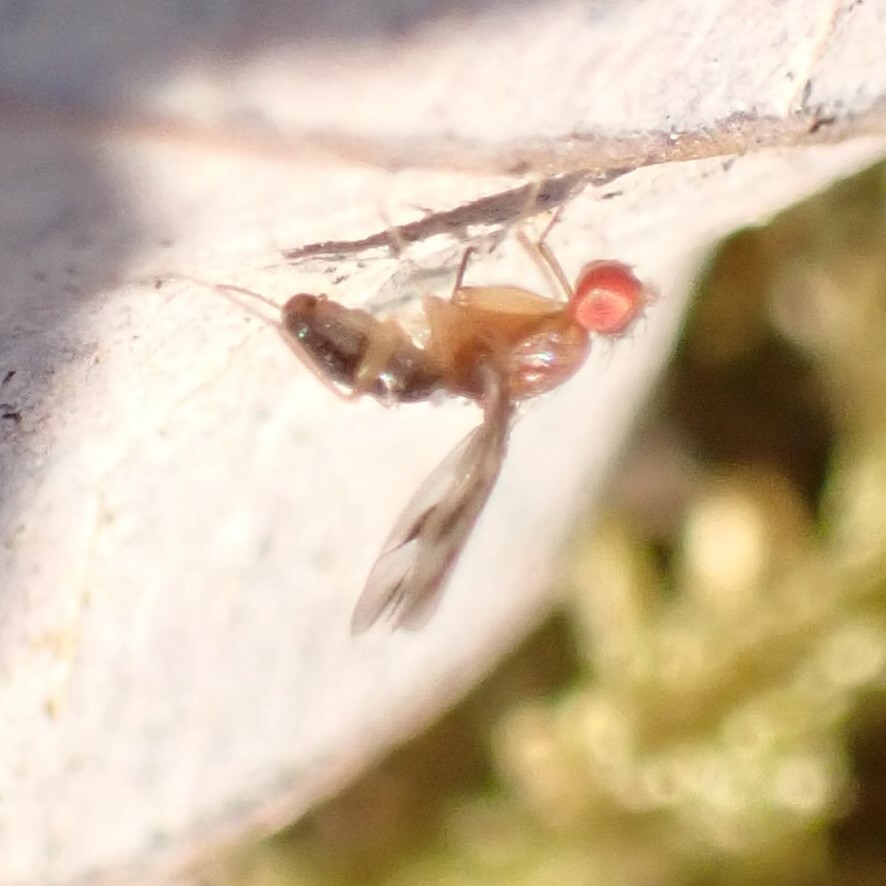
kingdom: Animalia
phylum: Arthropoda
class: Insecta
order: Diptera
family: Drosophilidae
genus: Chymomyza
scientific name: Chymomyza amoena
